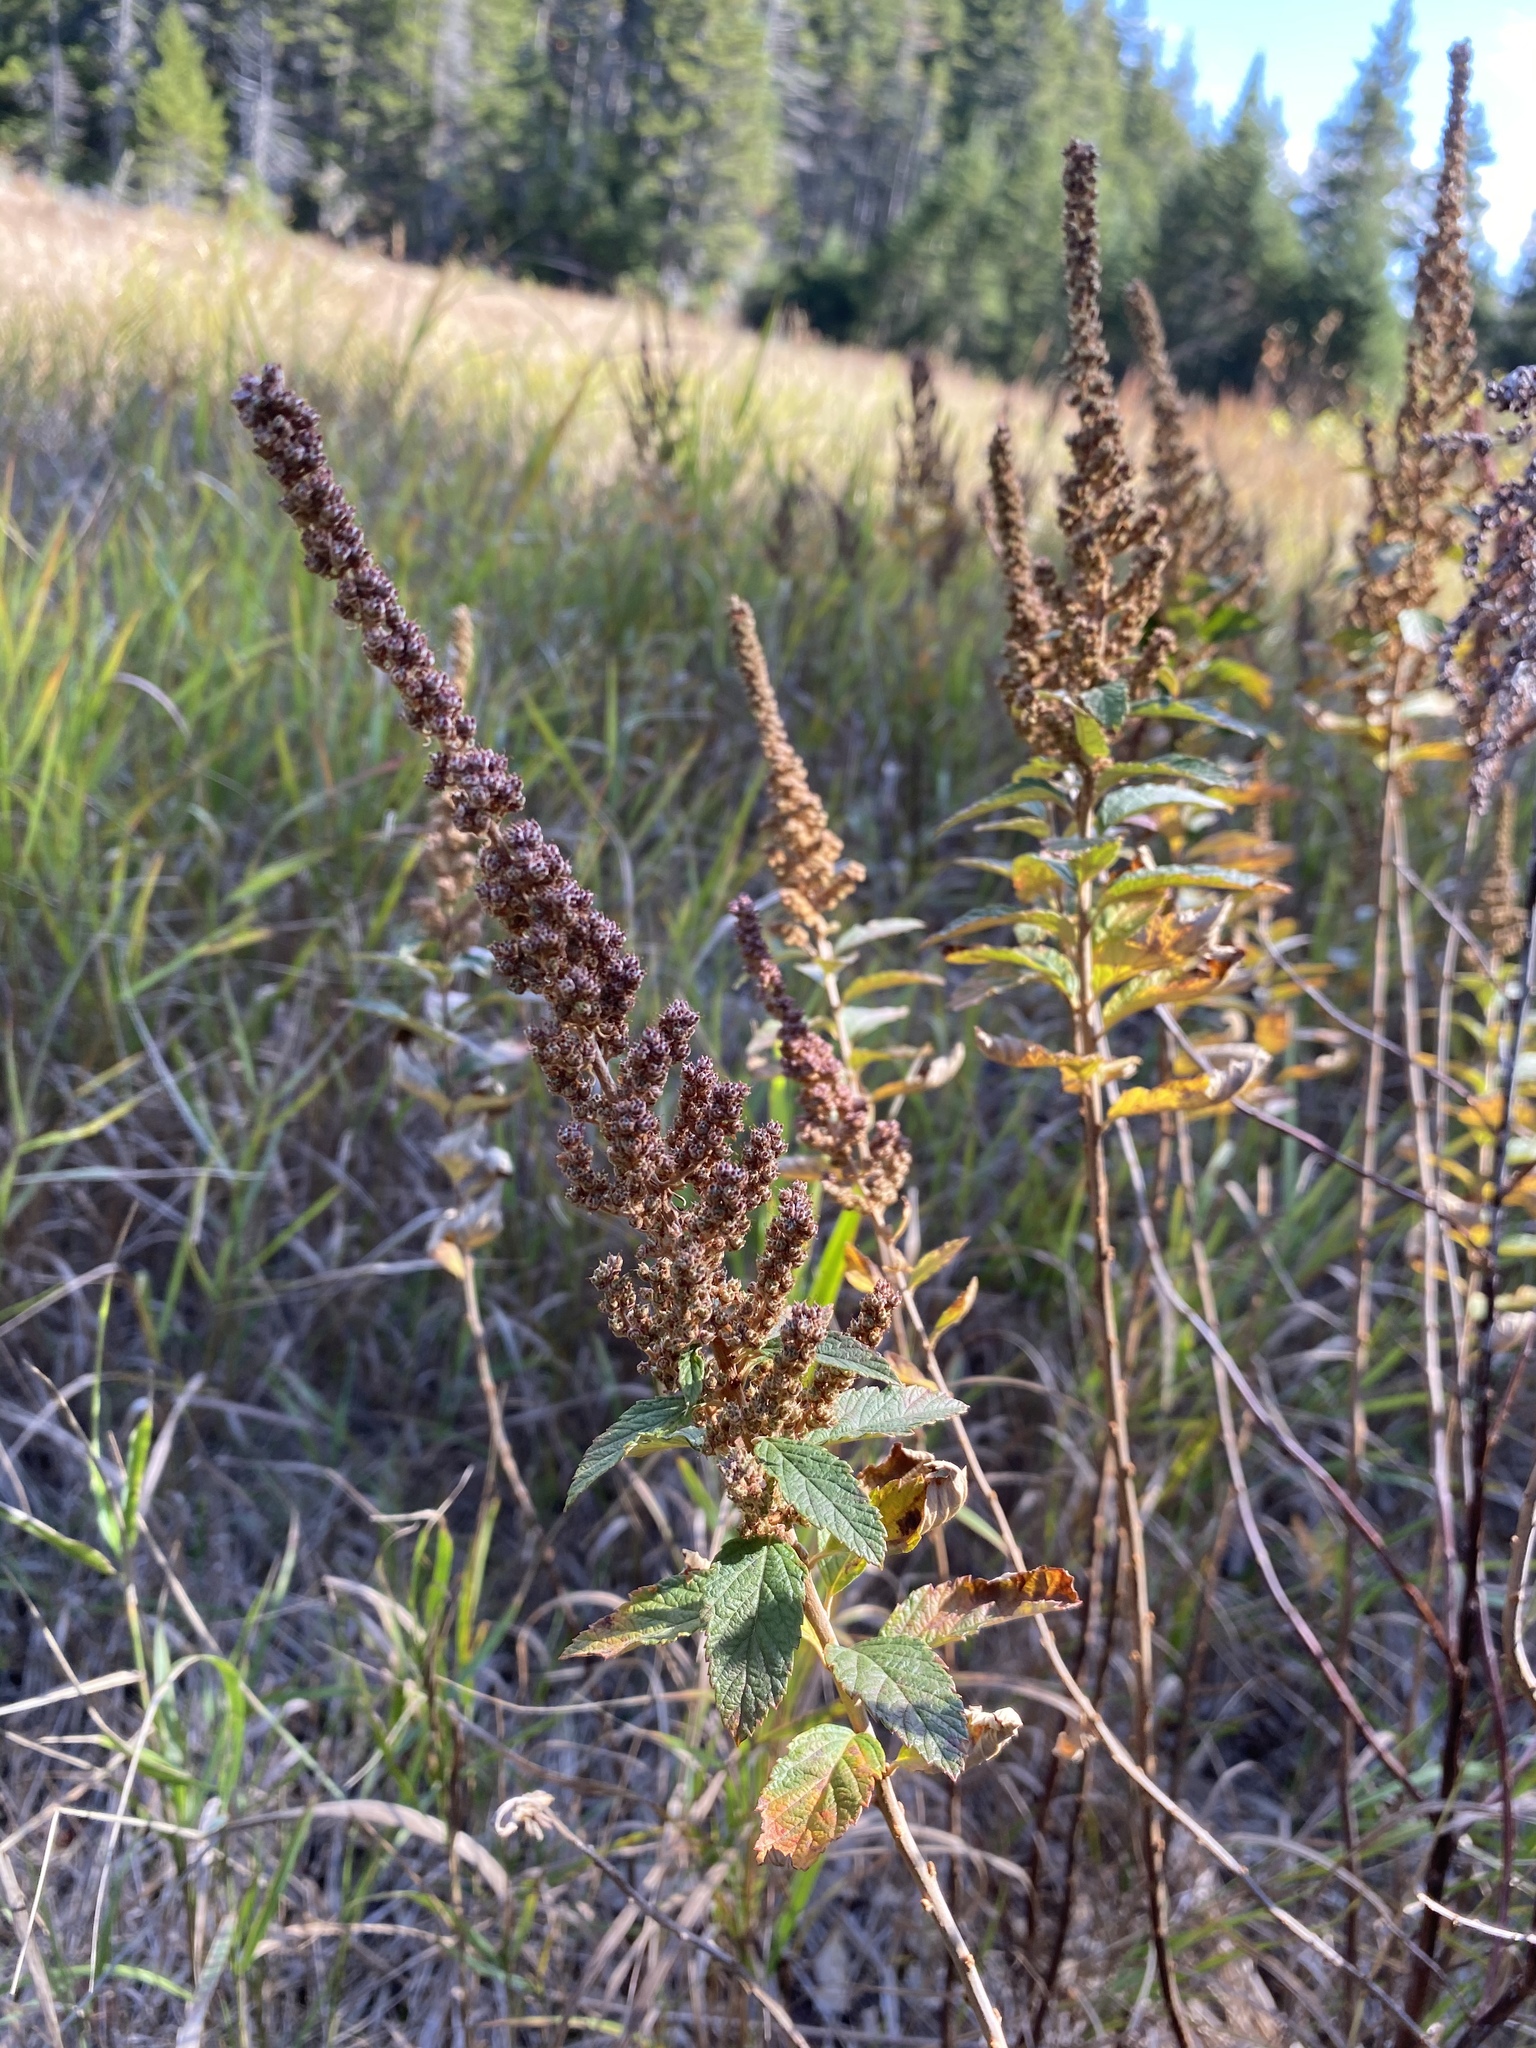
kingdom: Plantae
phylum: Tracheophyta
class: Magnoliopsida
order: Rosales
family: Rosaceae
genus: Spiraea
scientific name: Spiraea tomentosa
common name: Hardhack
